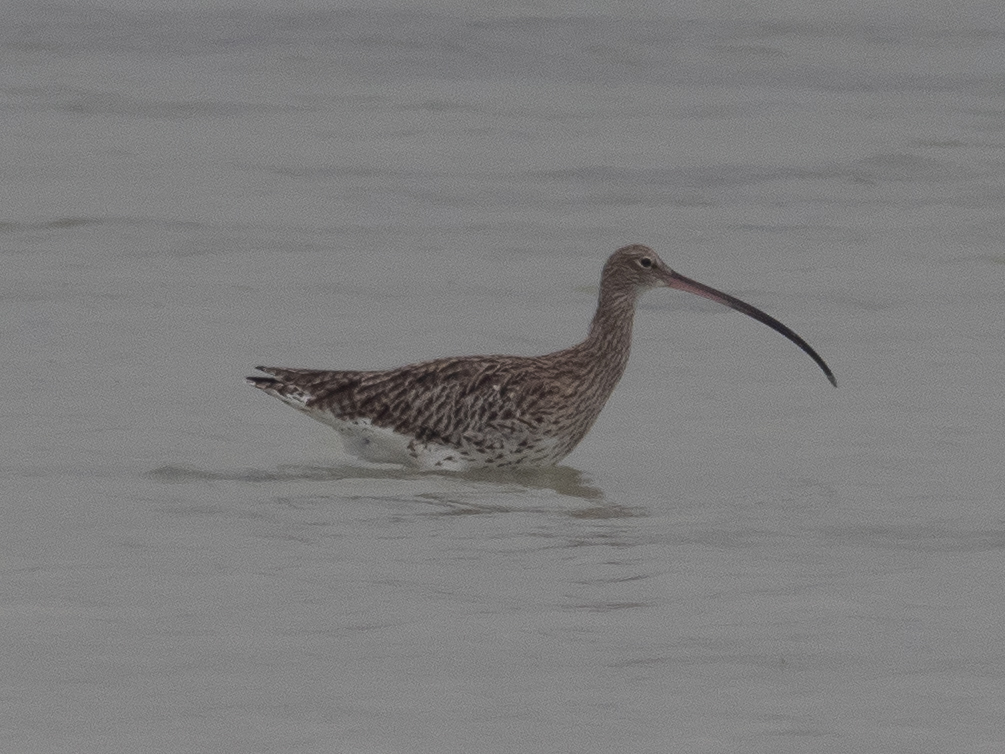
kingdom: Animalia
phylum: Chordata
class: Aves
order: Charadriiformes
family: Scolopacidae
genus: Numenius
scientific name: Numenius arquata
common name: Eurasian curlew
